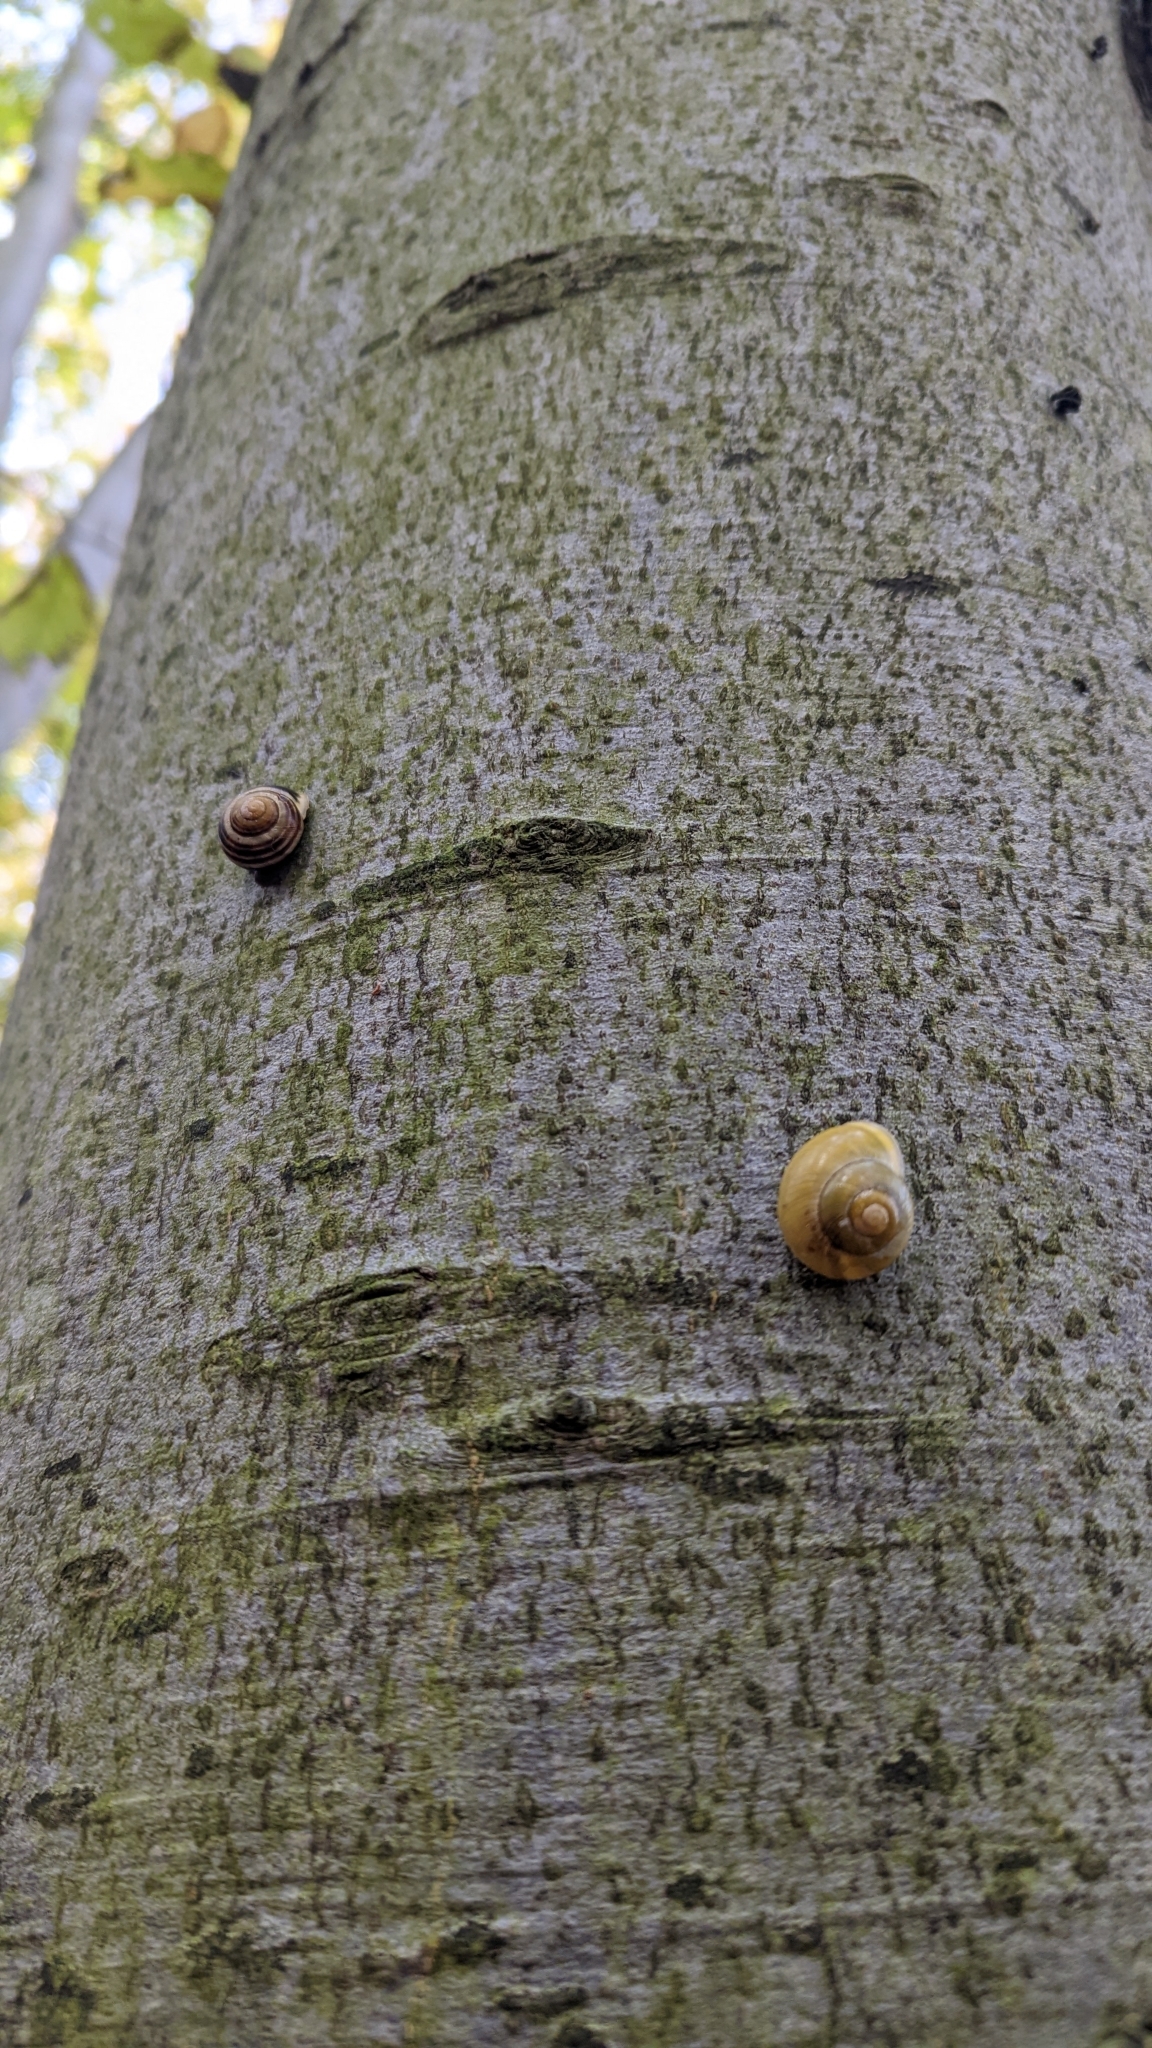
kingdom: Animalia
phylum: Mollusca
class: Gastropoda
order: Stylommatophora
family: Helicidae
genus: Cepaea
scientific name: Cepaea hortensis
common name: White-lip gardensnail
